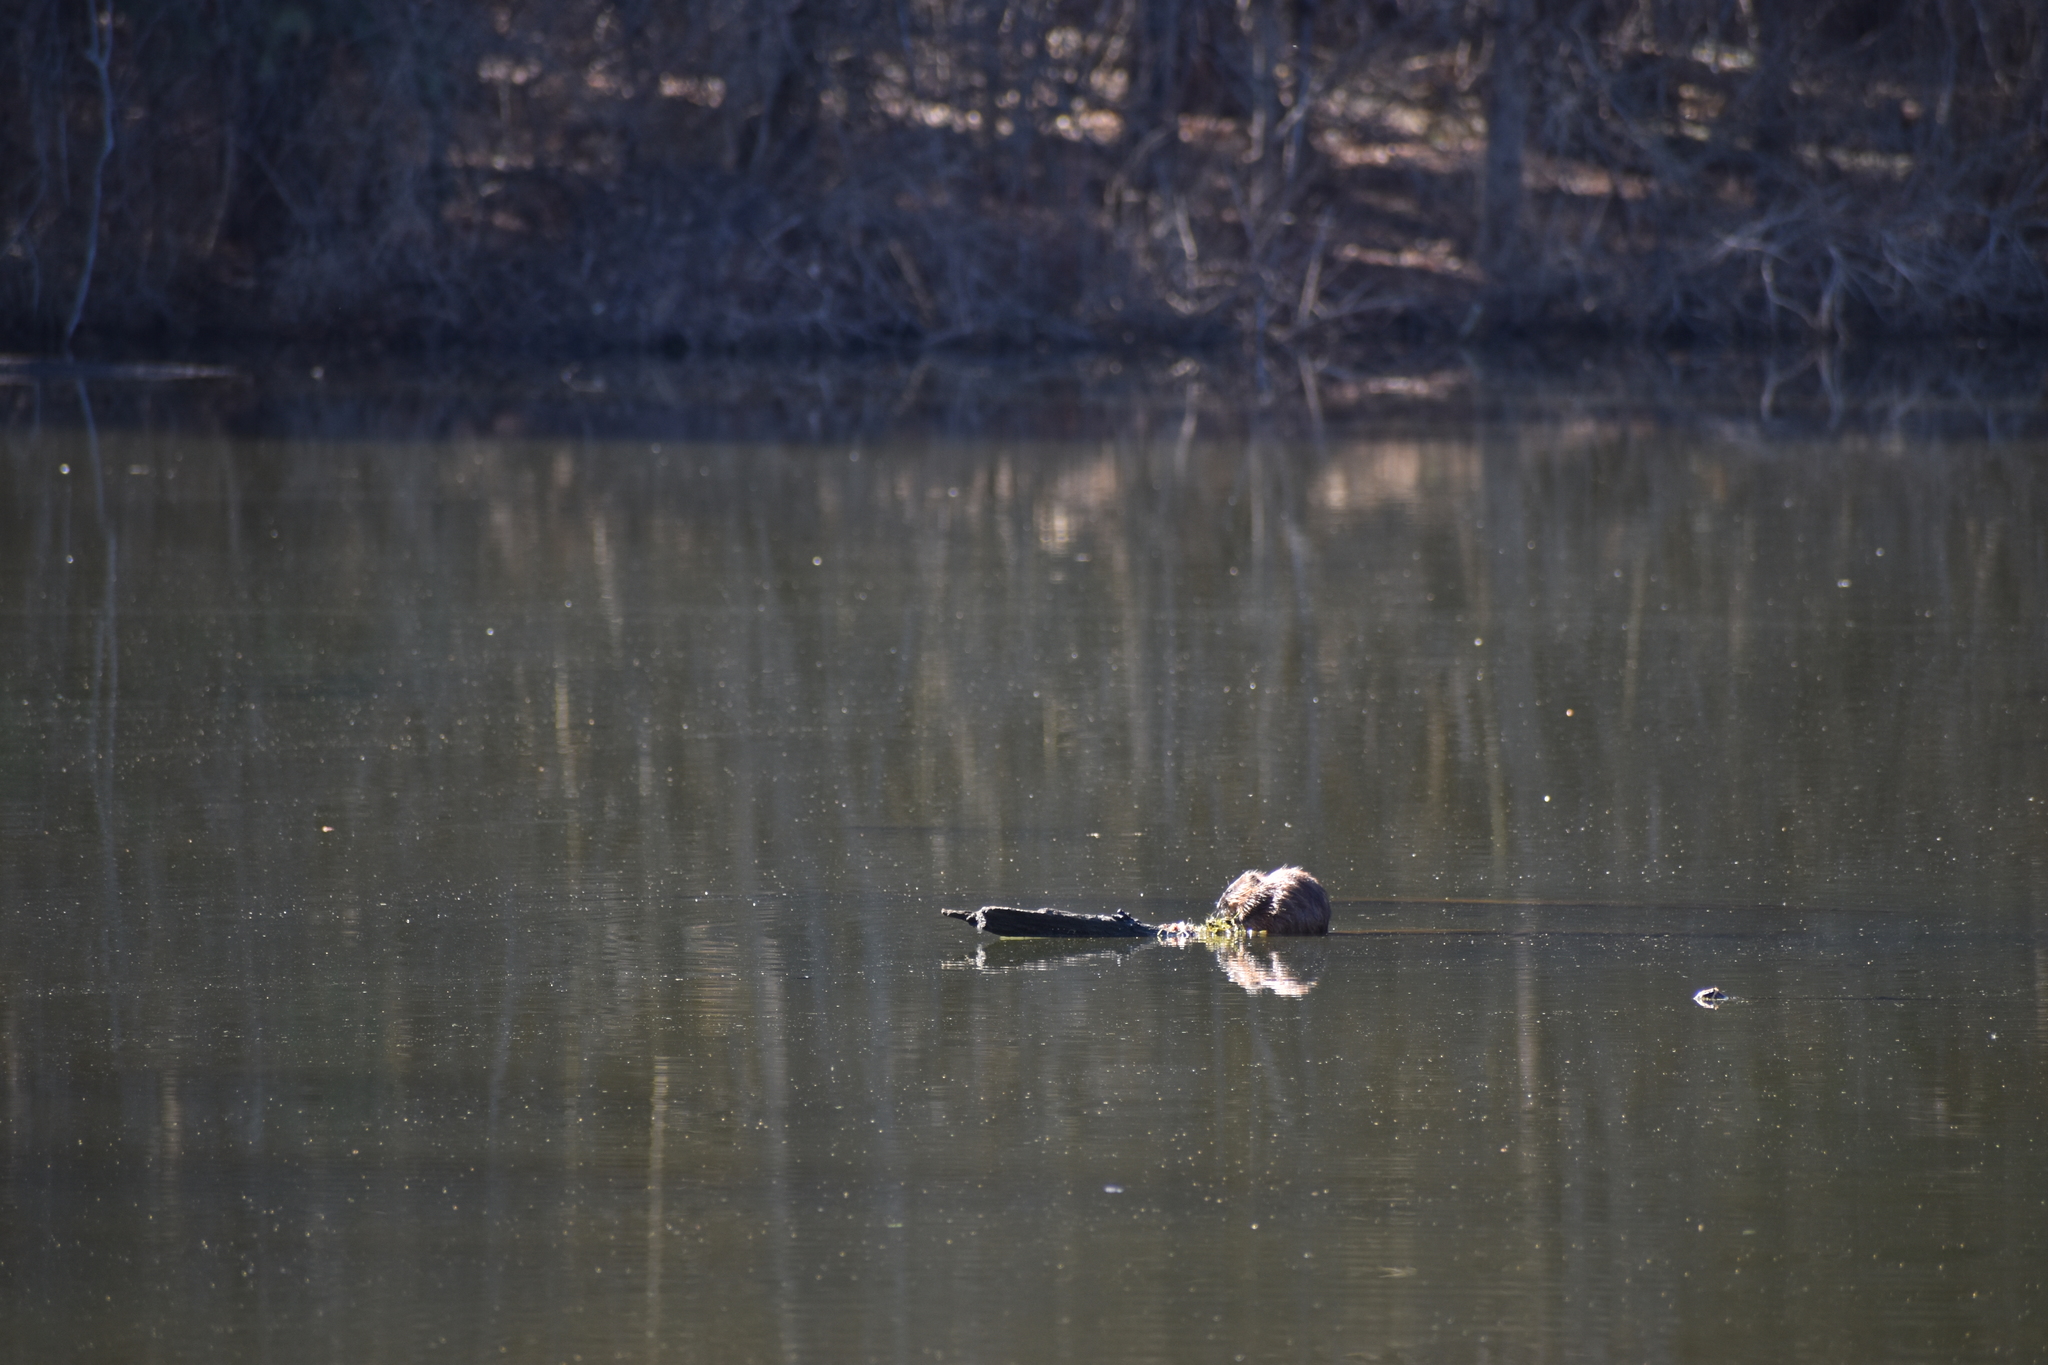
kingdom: Animalia
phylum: Chordata
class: Mammalia
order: Rodentia
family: Cricetidae
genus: Ondatra
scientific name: Ondatra zibethicus
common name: Muskrat
